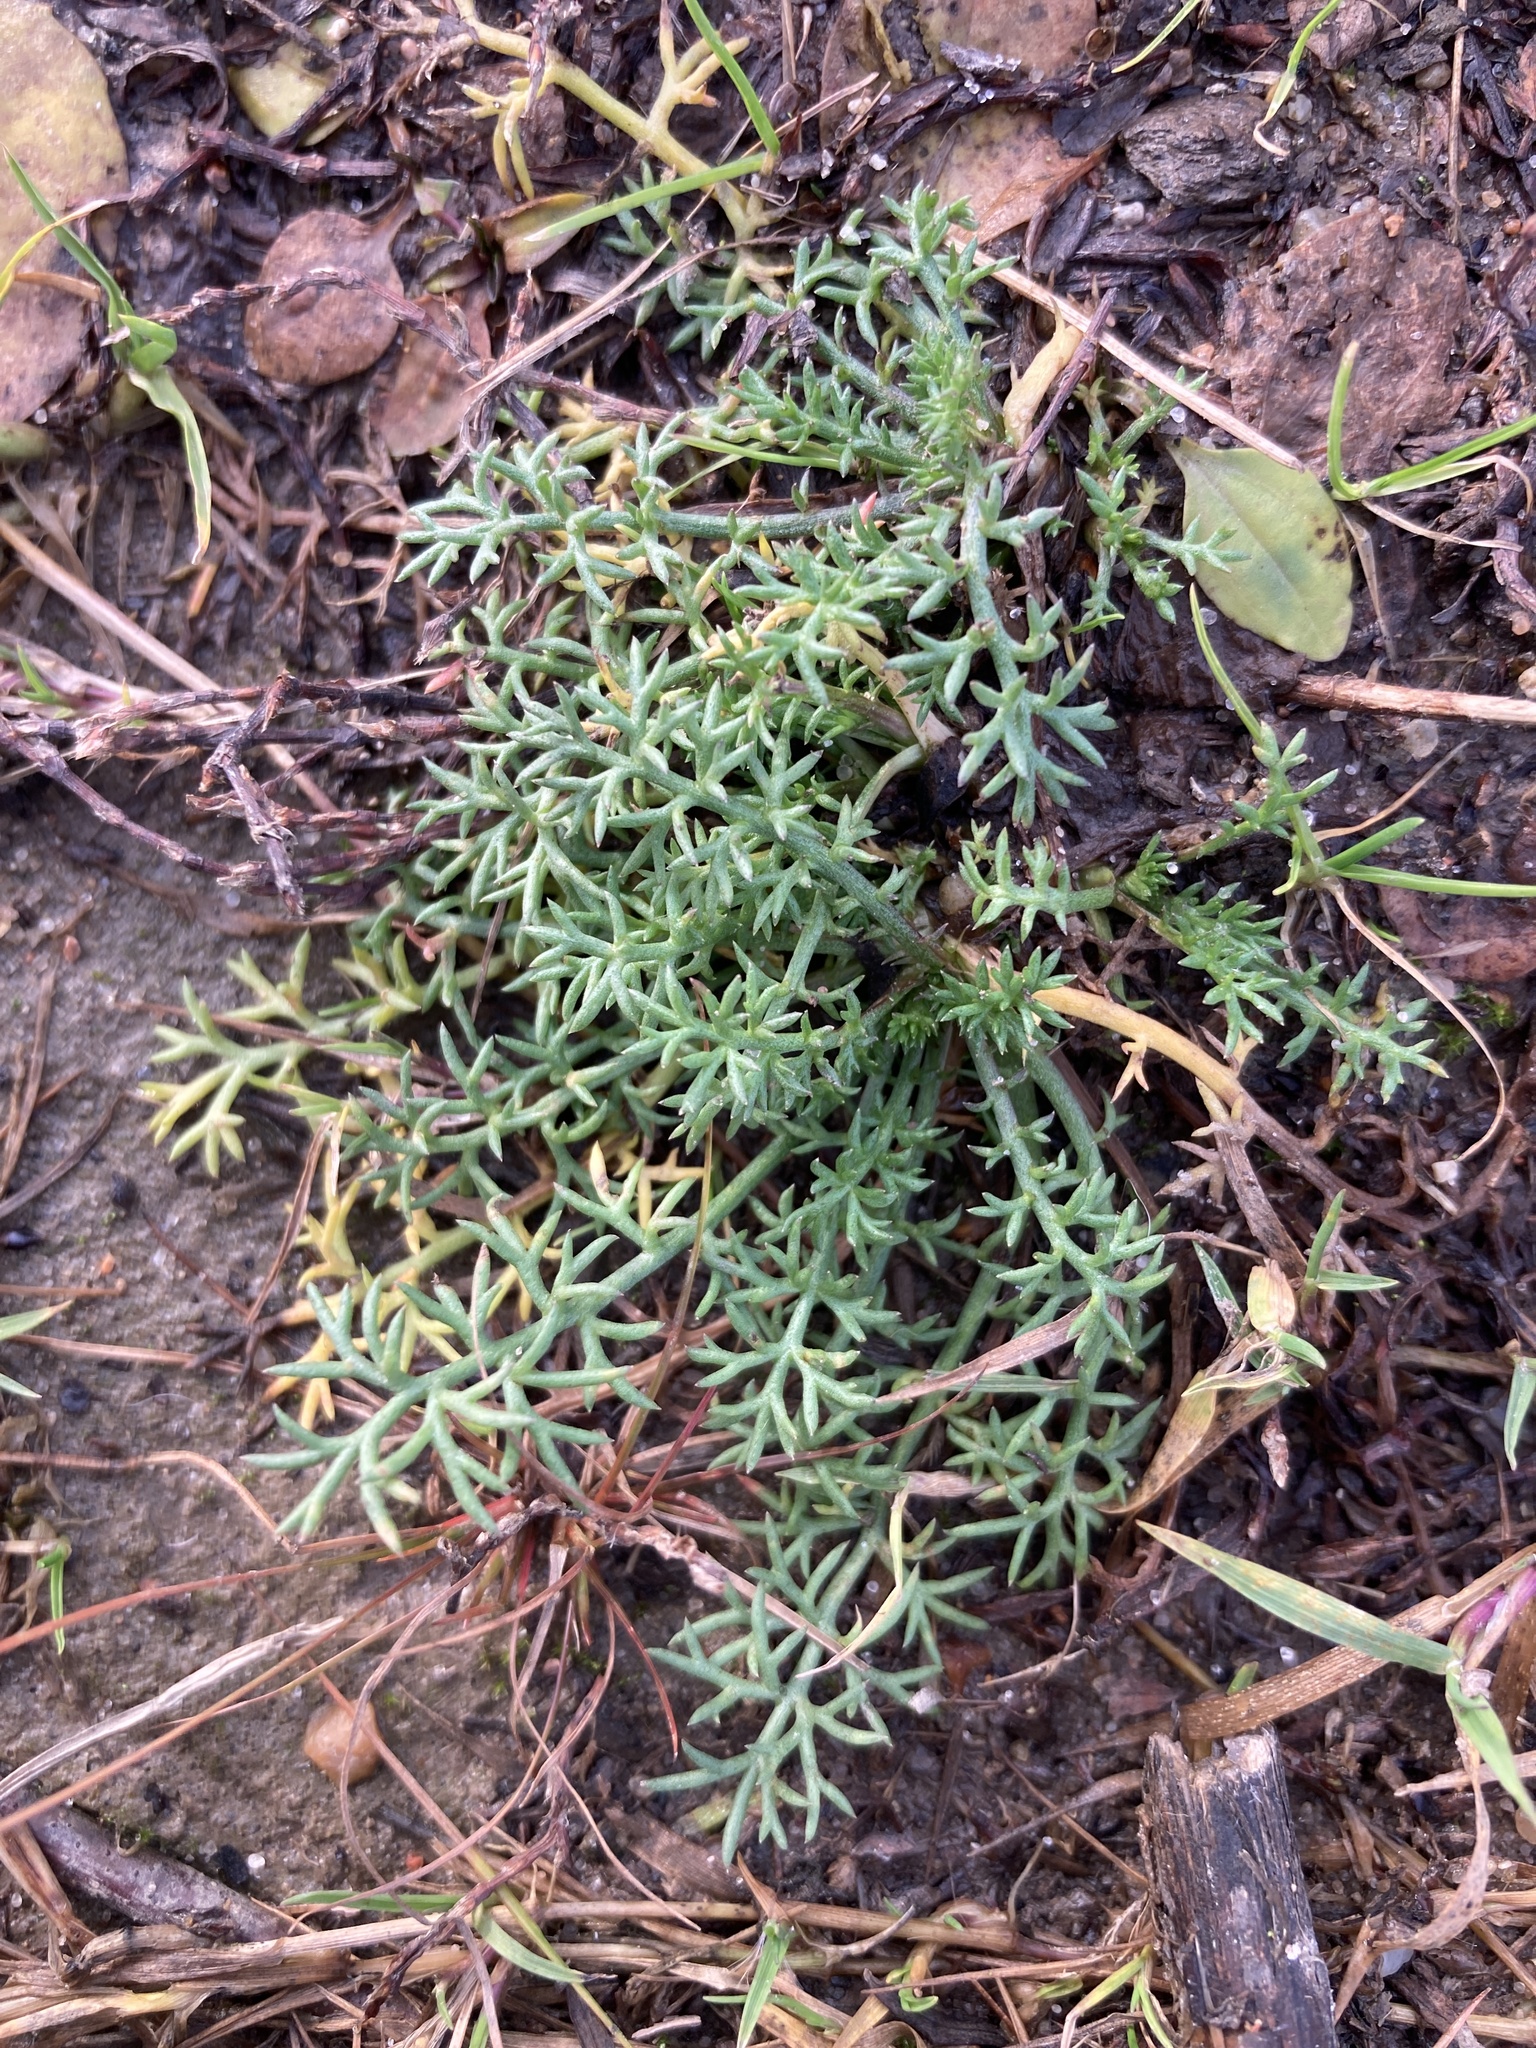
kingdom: Plantae
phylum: Tracheophyta
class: Magnoliopsida
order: Asterales
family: Asteraceae
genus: Tripleurospermum
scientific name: Tripleurospermum inodorum
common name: Scentless mayweed
